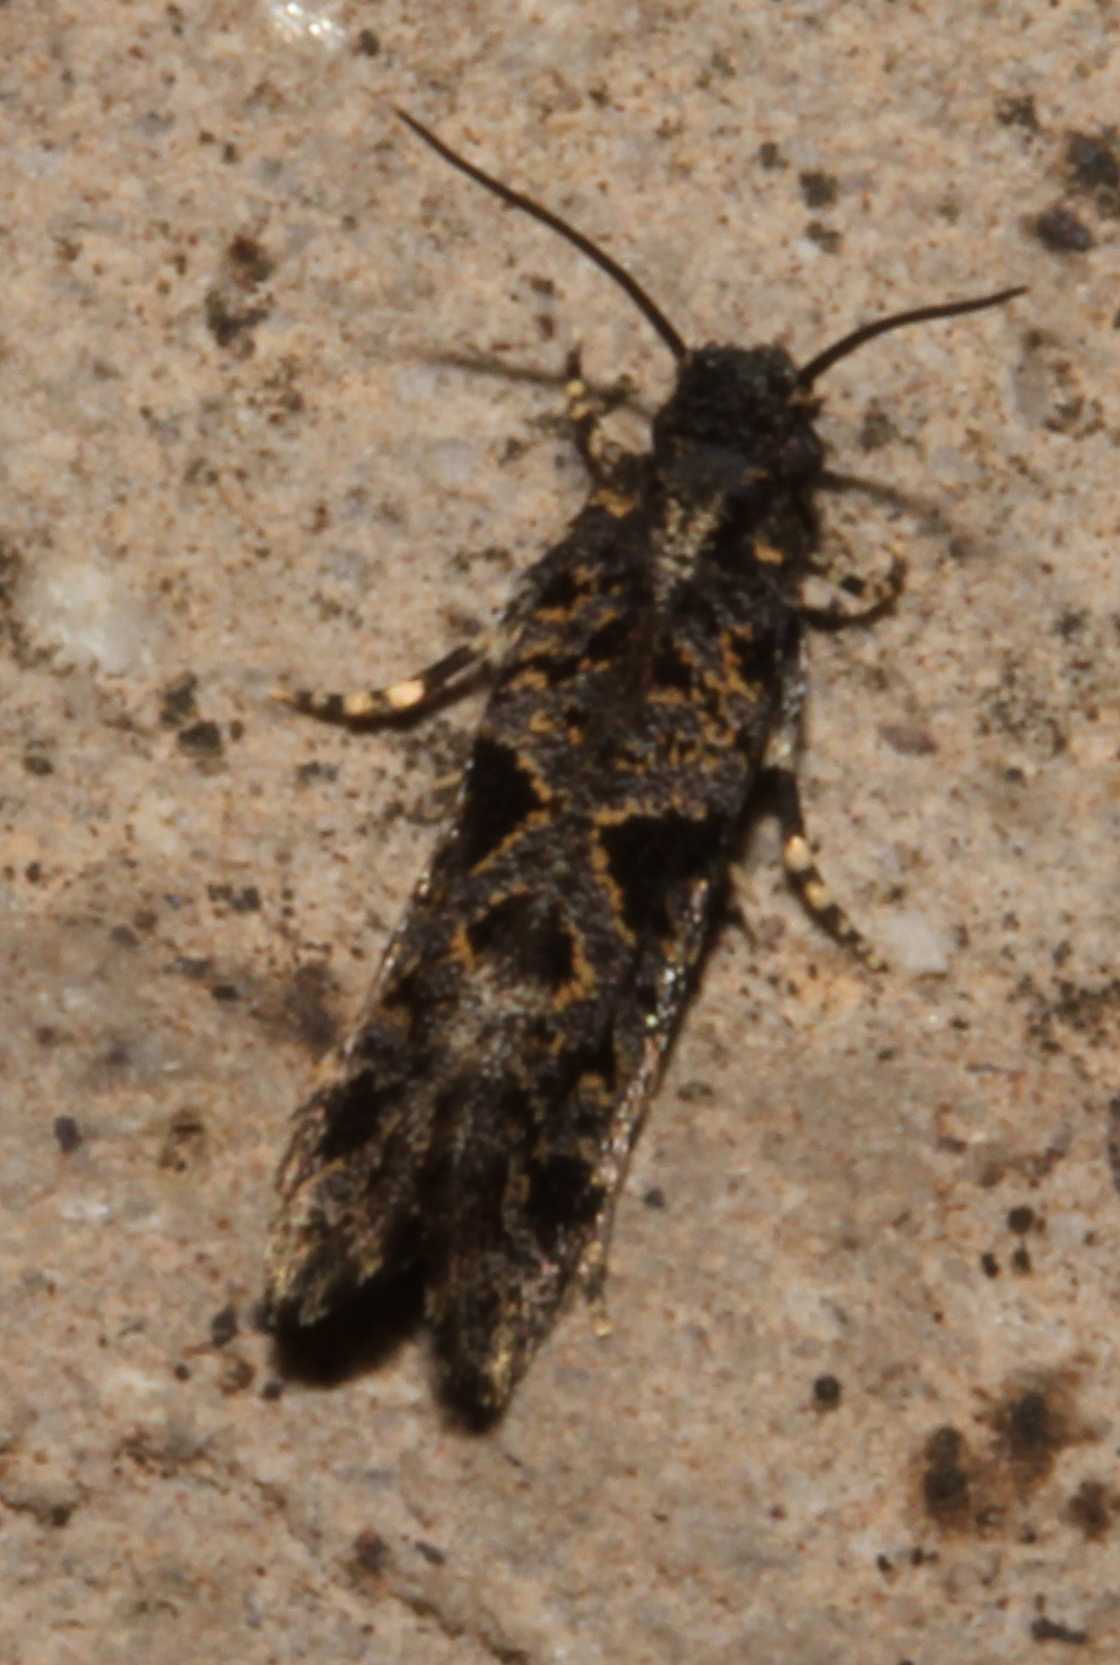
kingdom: Animalia
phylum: Arthropoda
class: Insecta
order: Lepidoptera
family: Tineidae
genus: Amydria
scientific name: Amydria
